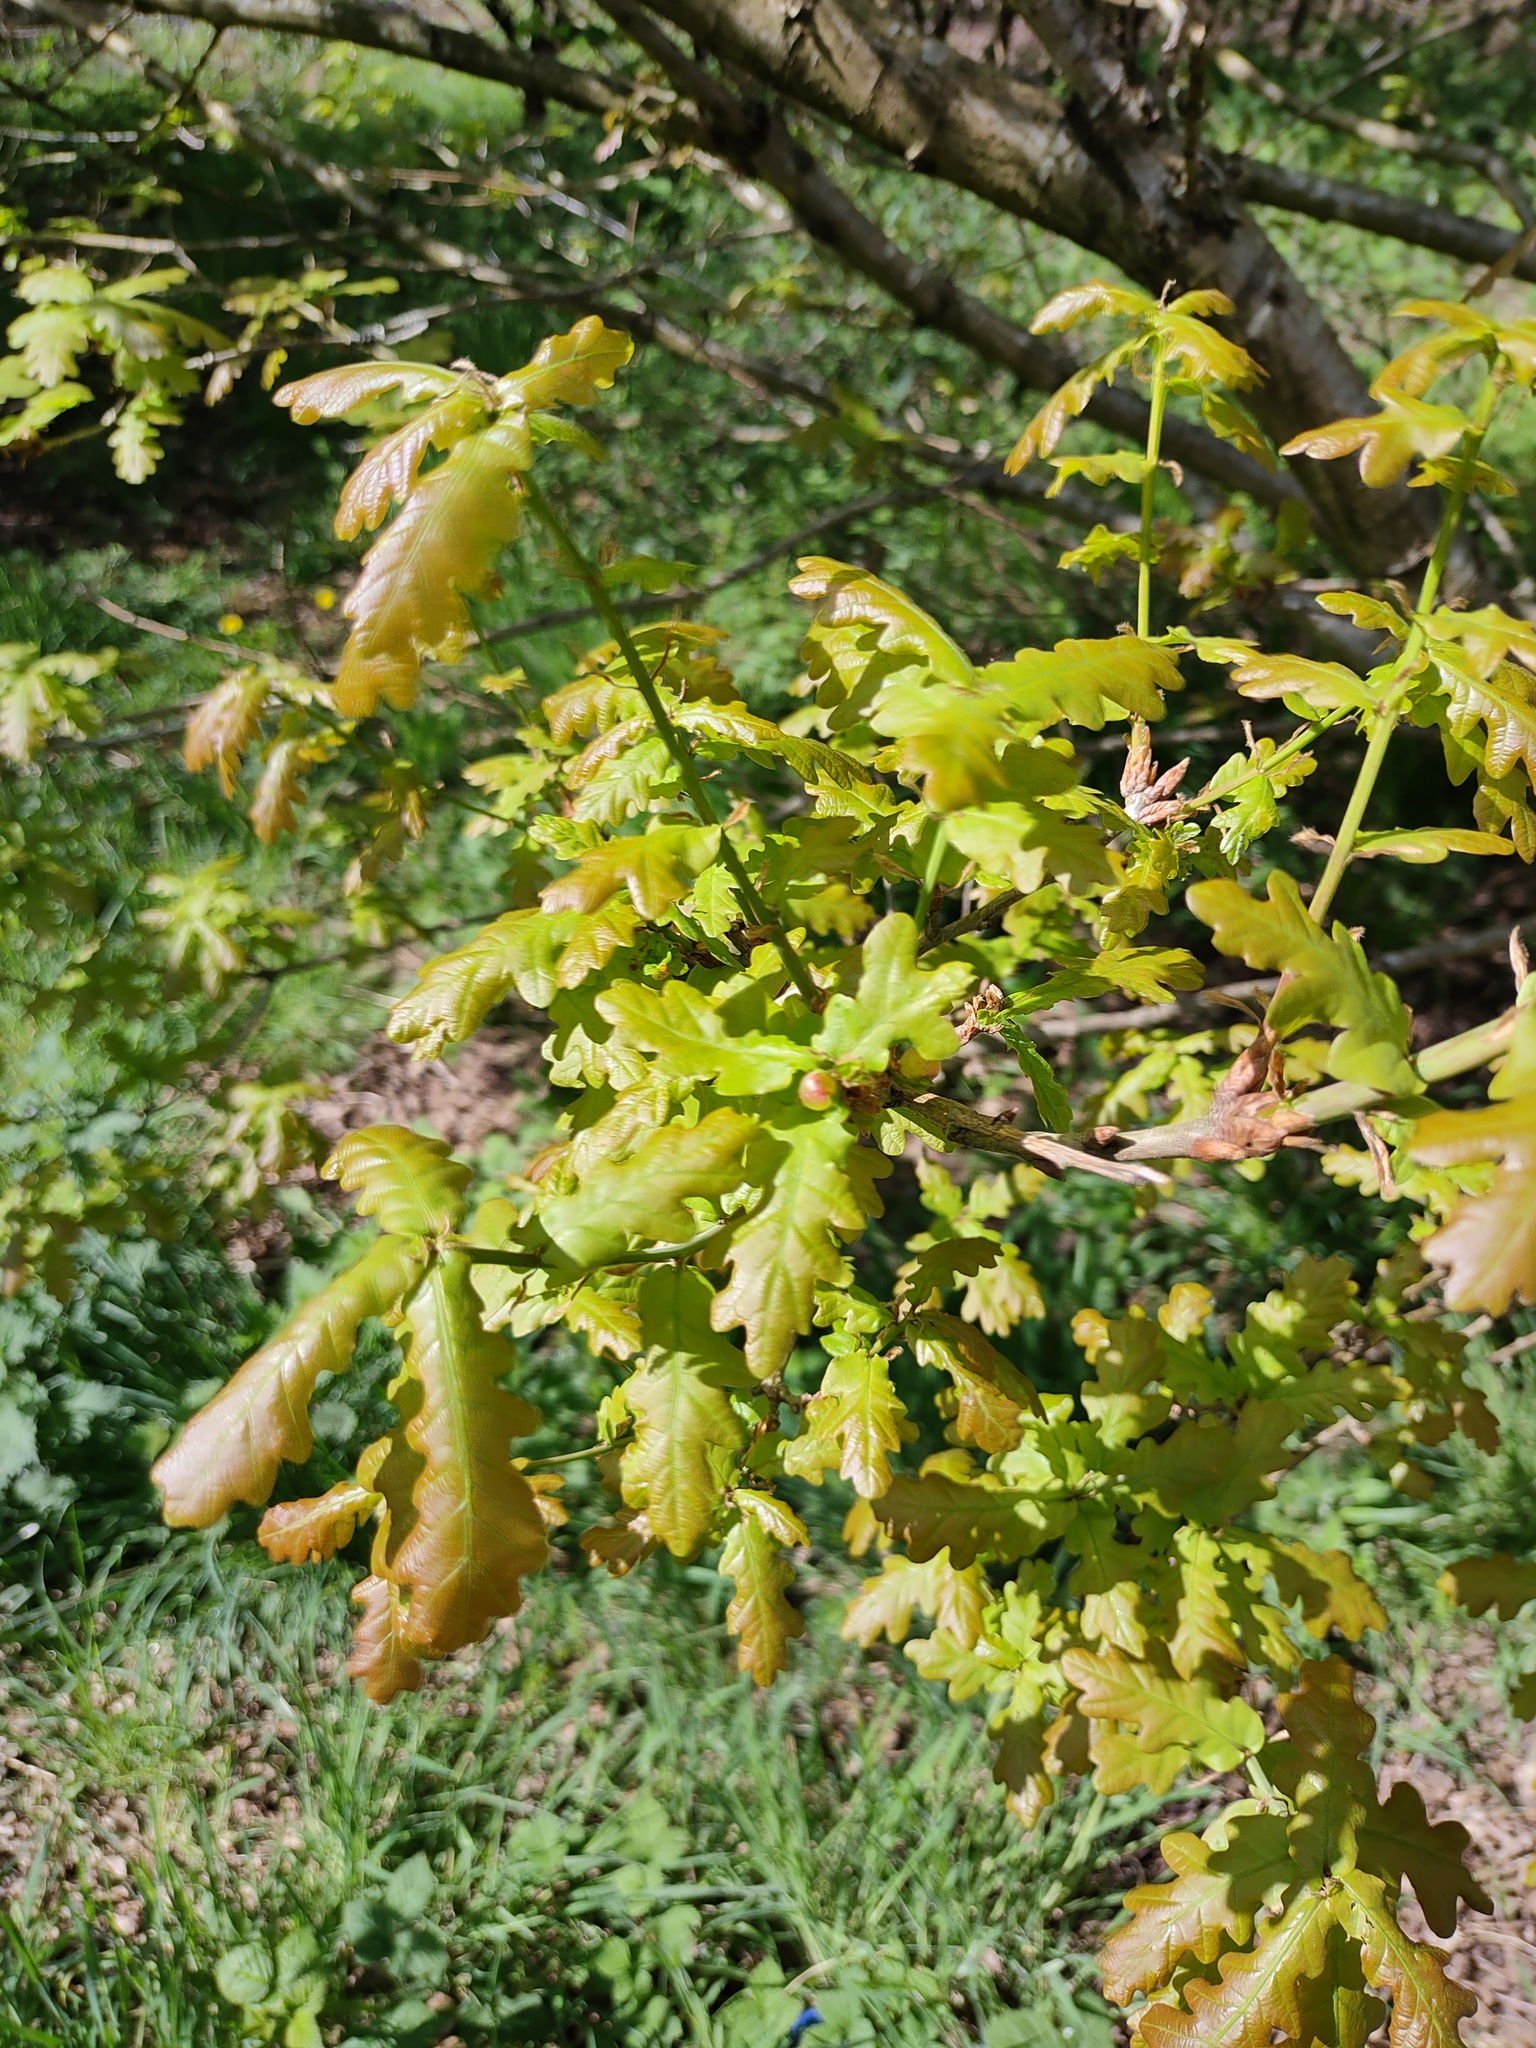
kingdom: Plantae
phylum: Tracheophyta
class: Magnoliopsida
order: Fagales
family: Fagaceae
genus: Quercus
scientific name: Quercus robur
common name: Pedunculate oak
